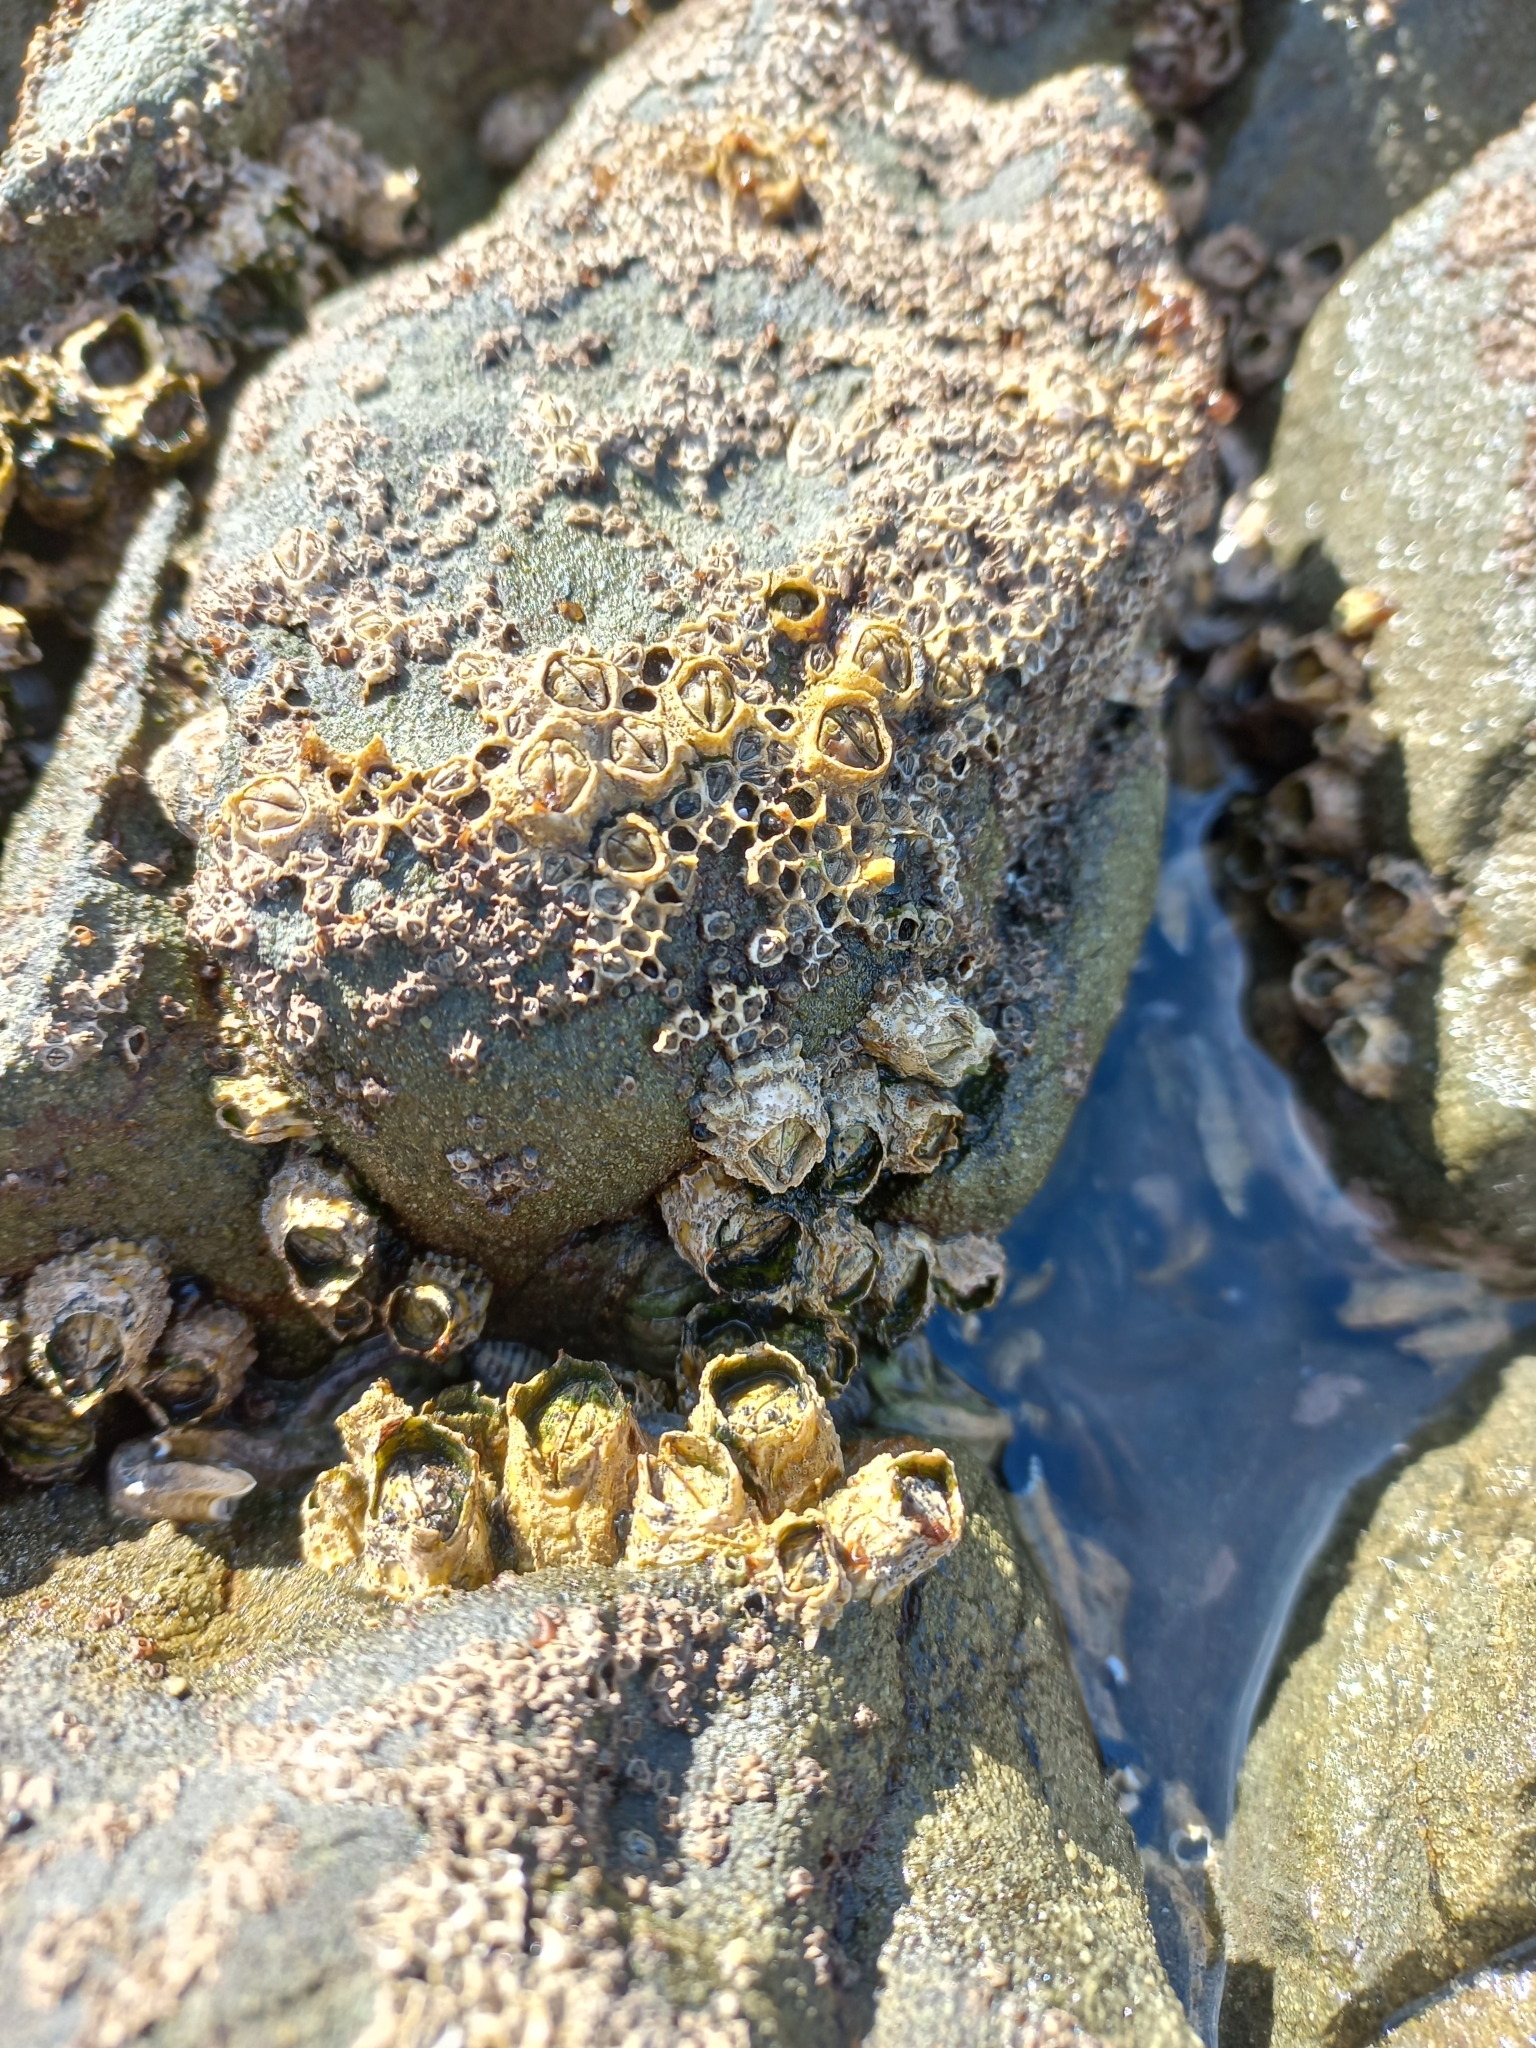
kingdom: Animalia
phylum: Arthropoda
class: Maxillopoda
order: Sessilia
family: Tetraclitidae
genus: Epopella
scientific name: Epopella plicata
